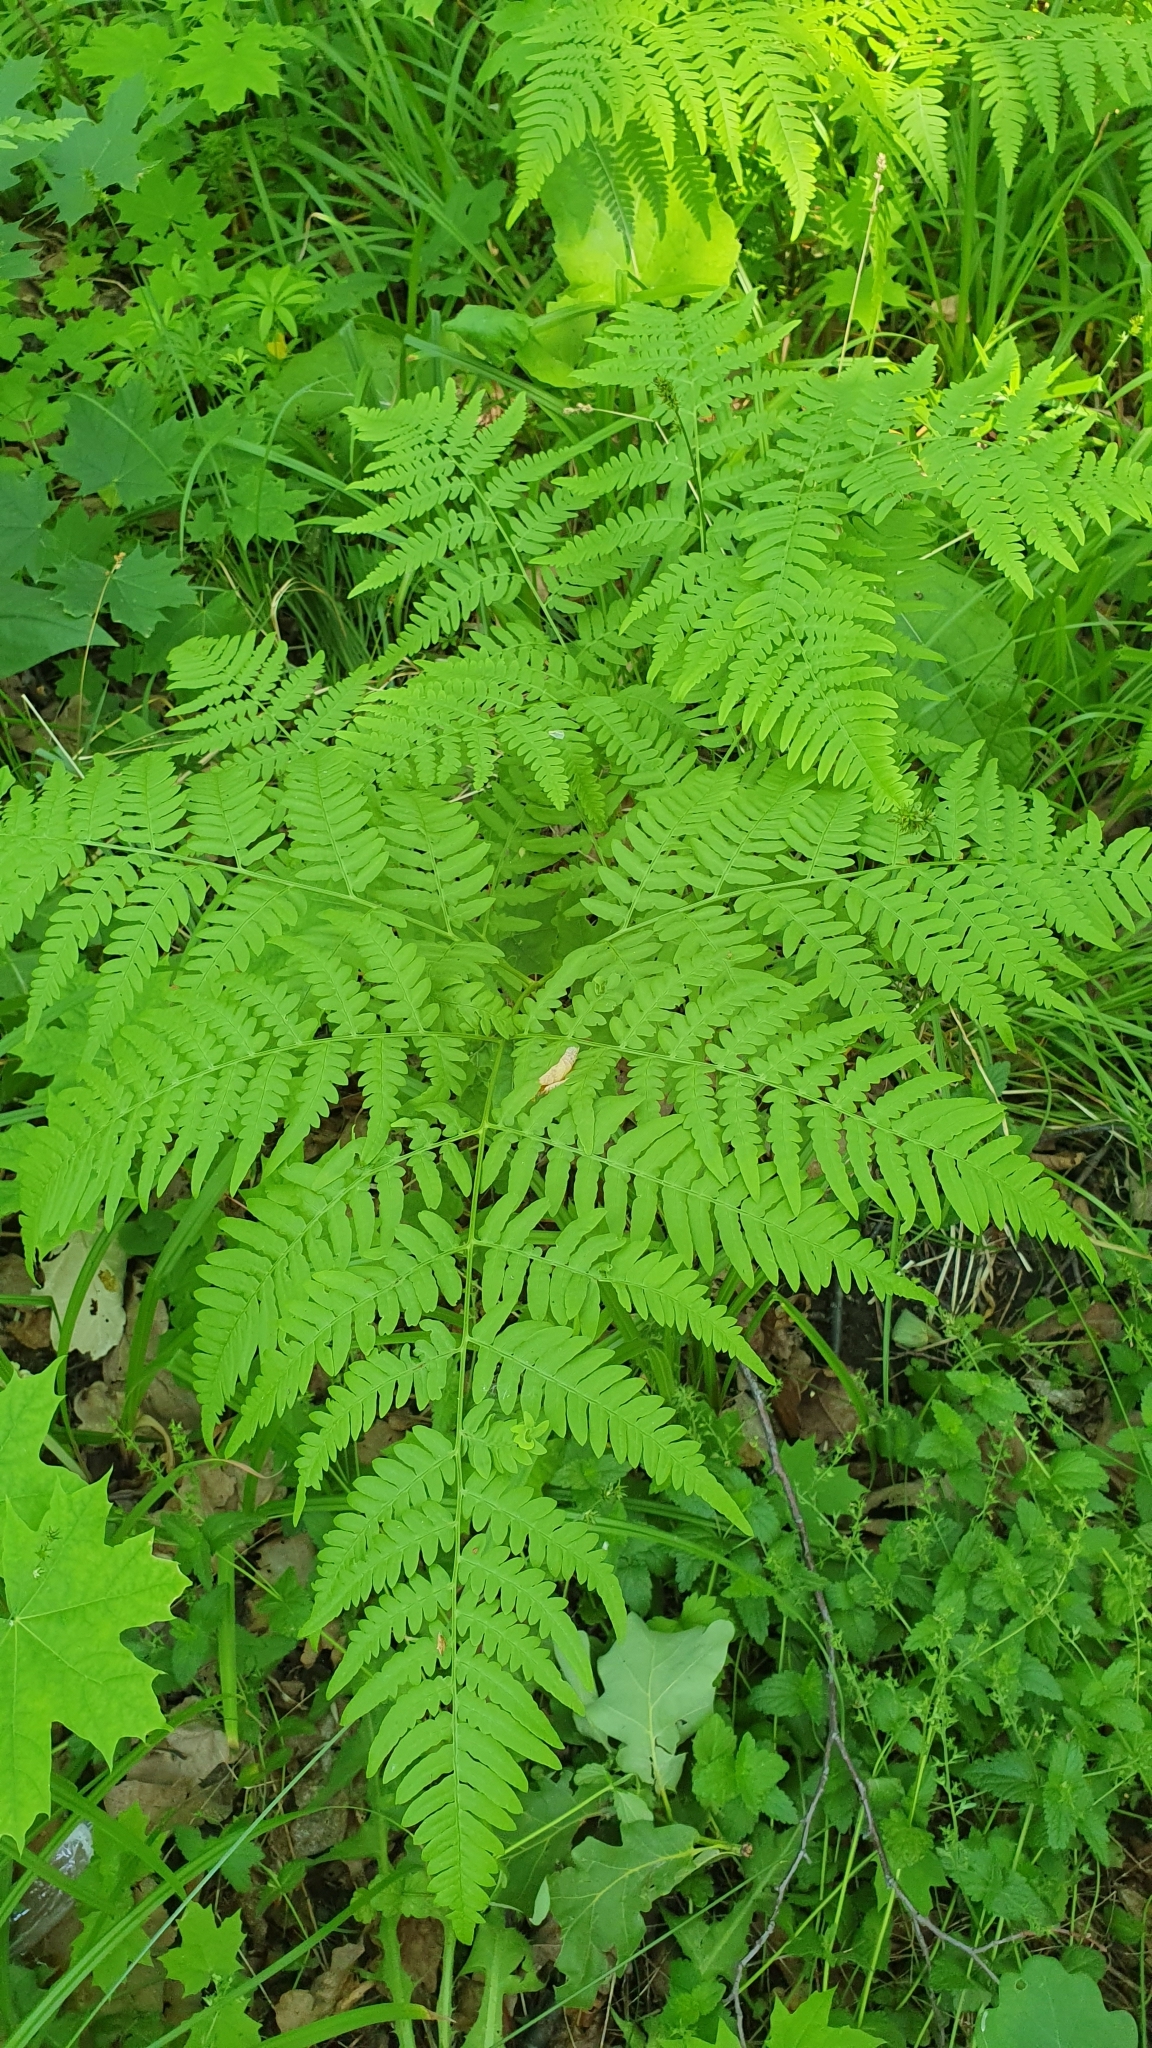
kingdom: Plantae
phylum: Tracheophyta
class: Polypodiopsida
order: Polypodiales
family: Dennstaedtiaceae
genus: Pteridium
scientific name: Pteridium aquilinum
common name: Bracken
